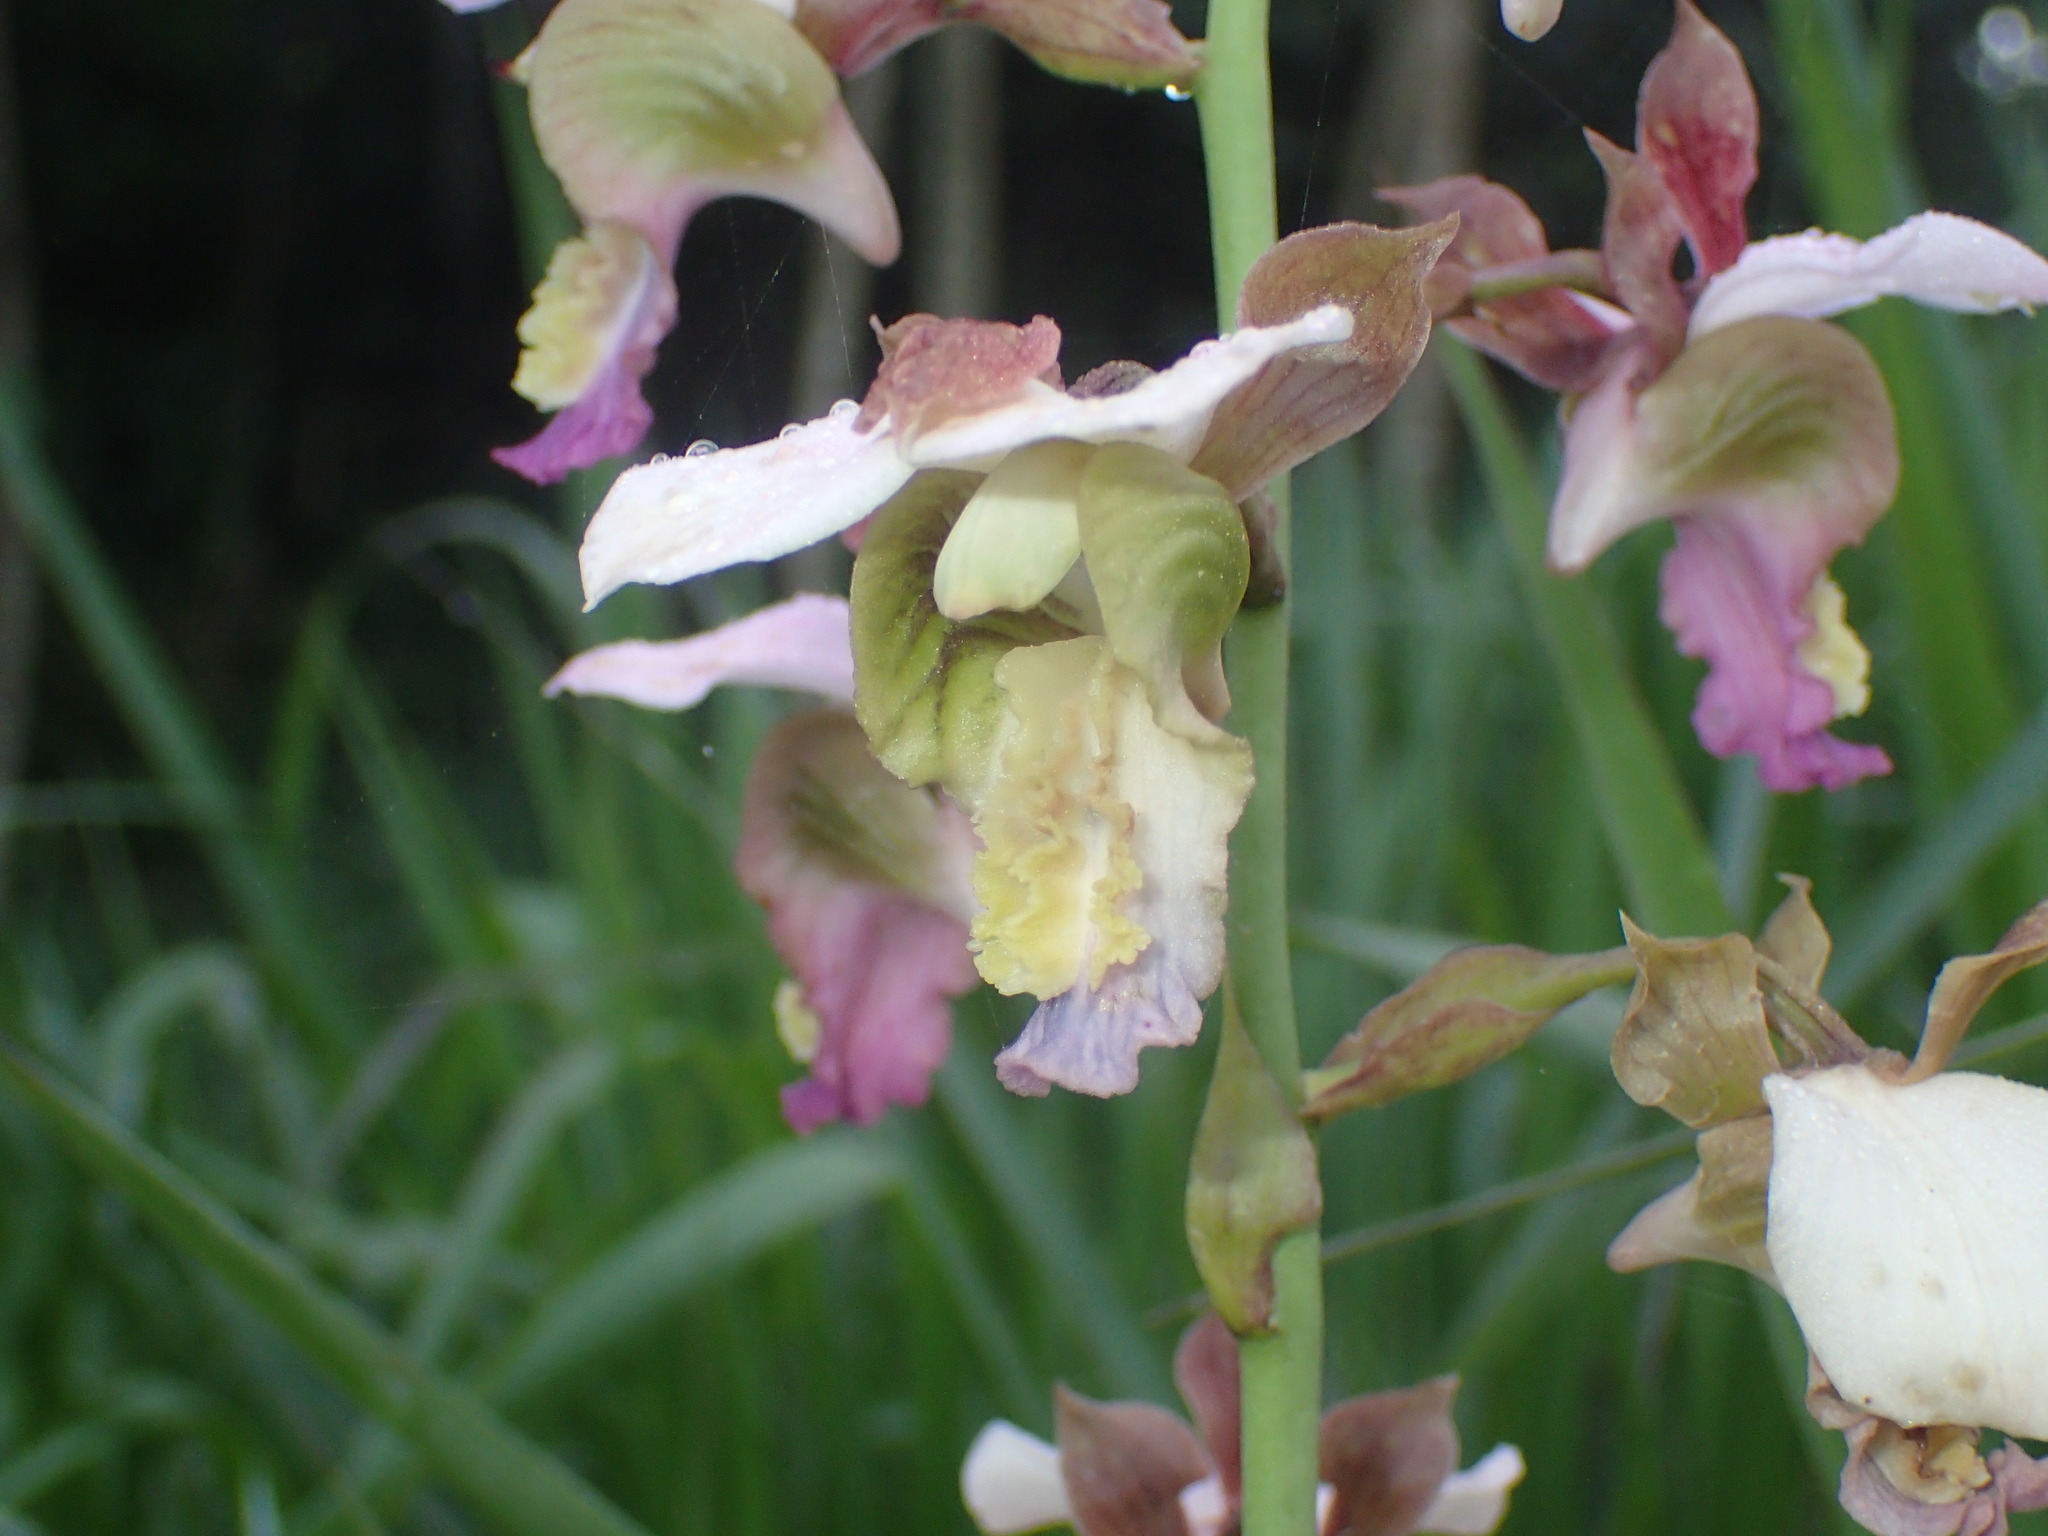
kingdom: Plantae
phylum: Tracheophyta
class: Liliopsida
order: Asparagales
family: Orchidaceae
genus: Eulophia
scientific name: Eulophia horsfallii
